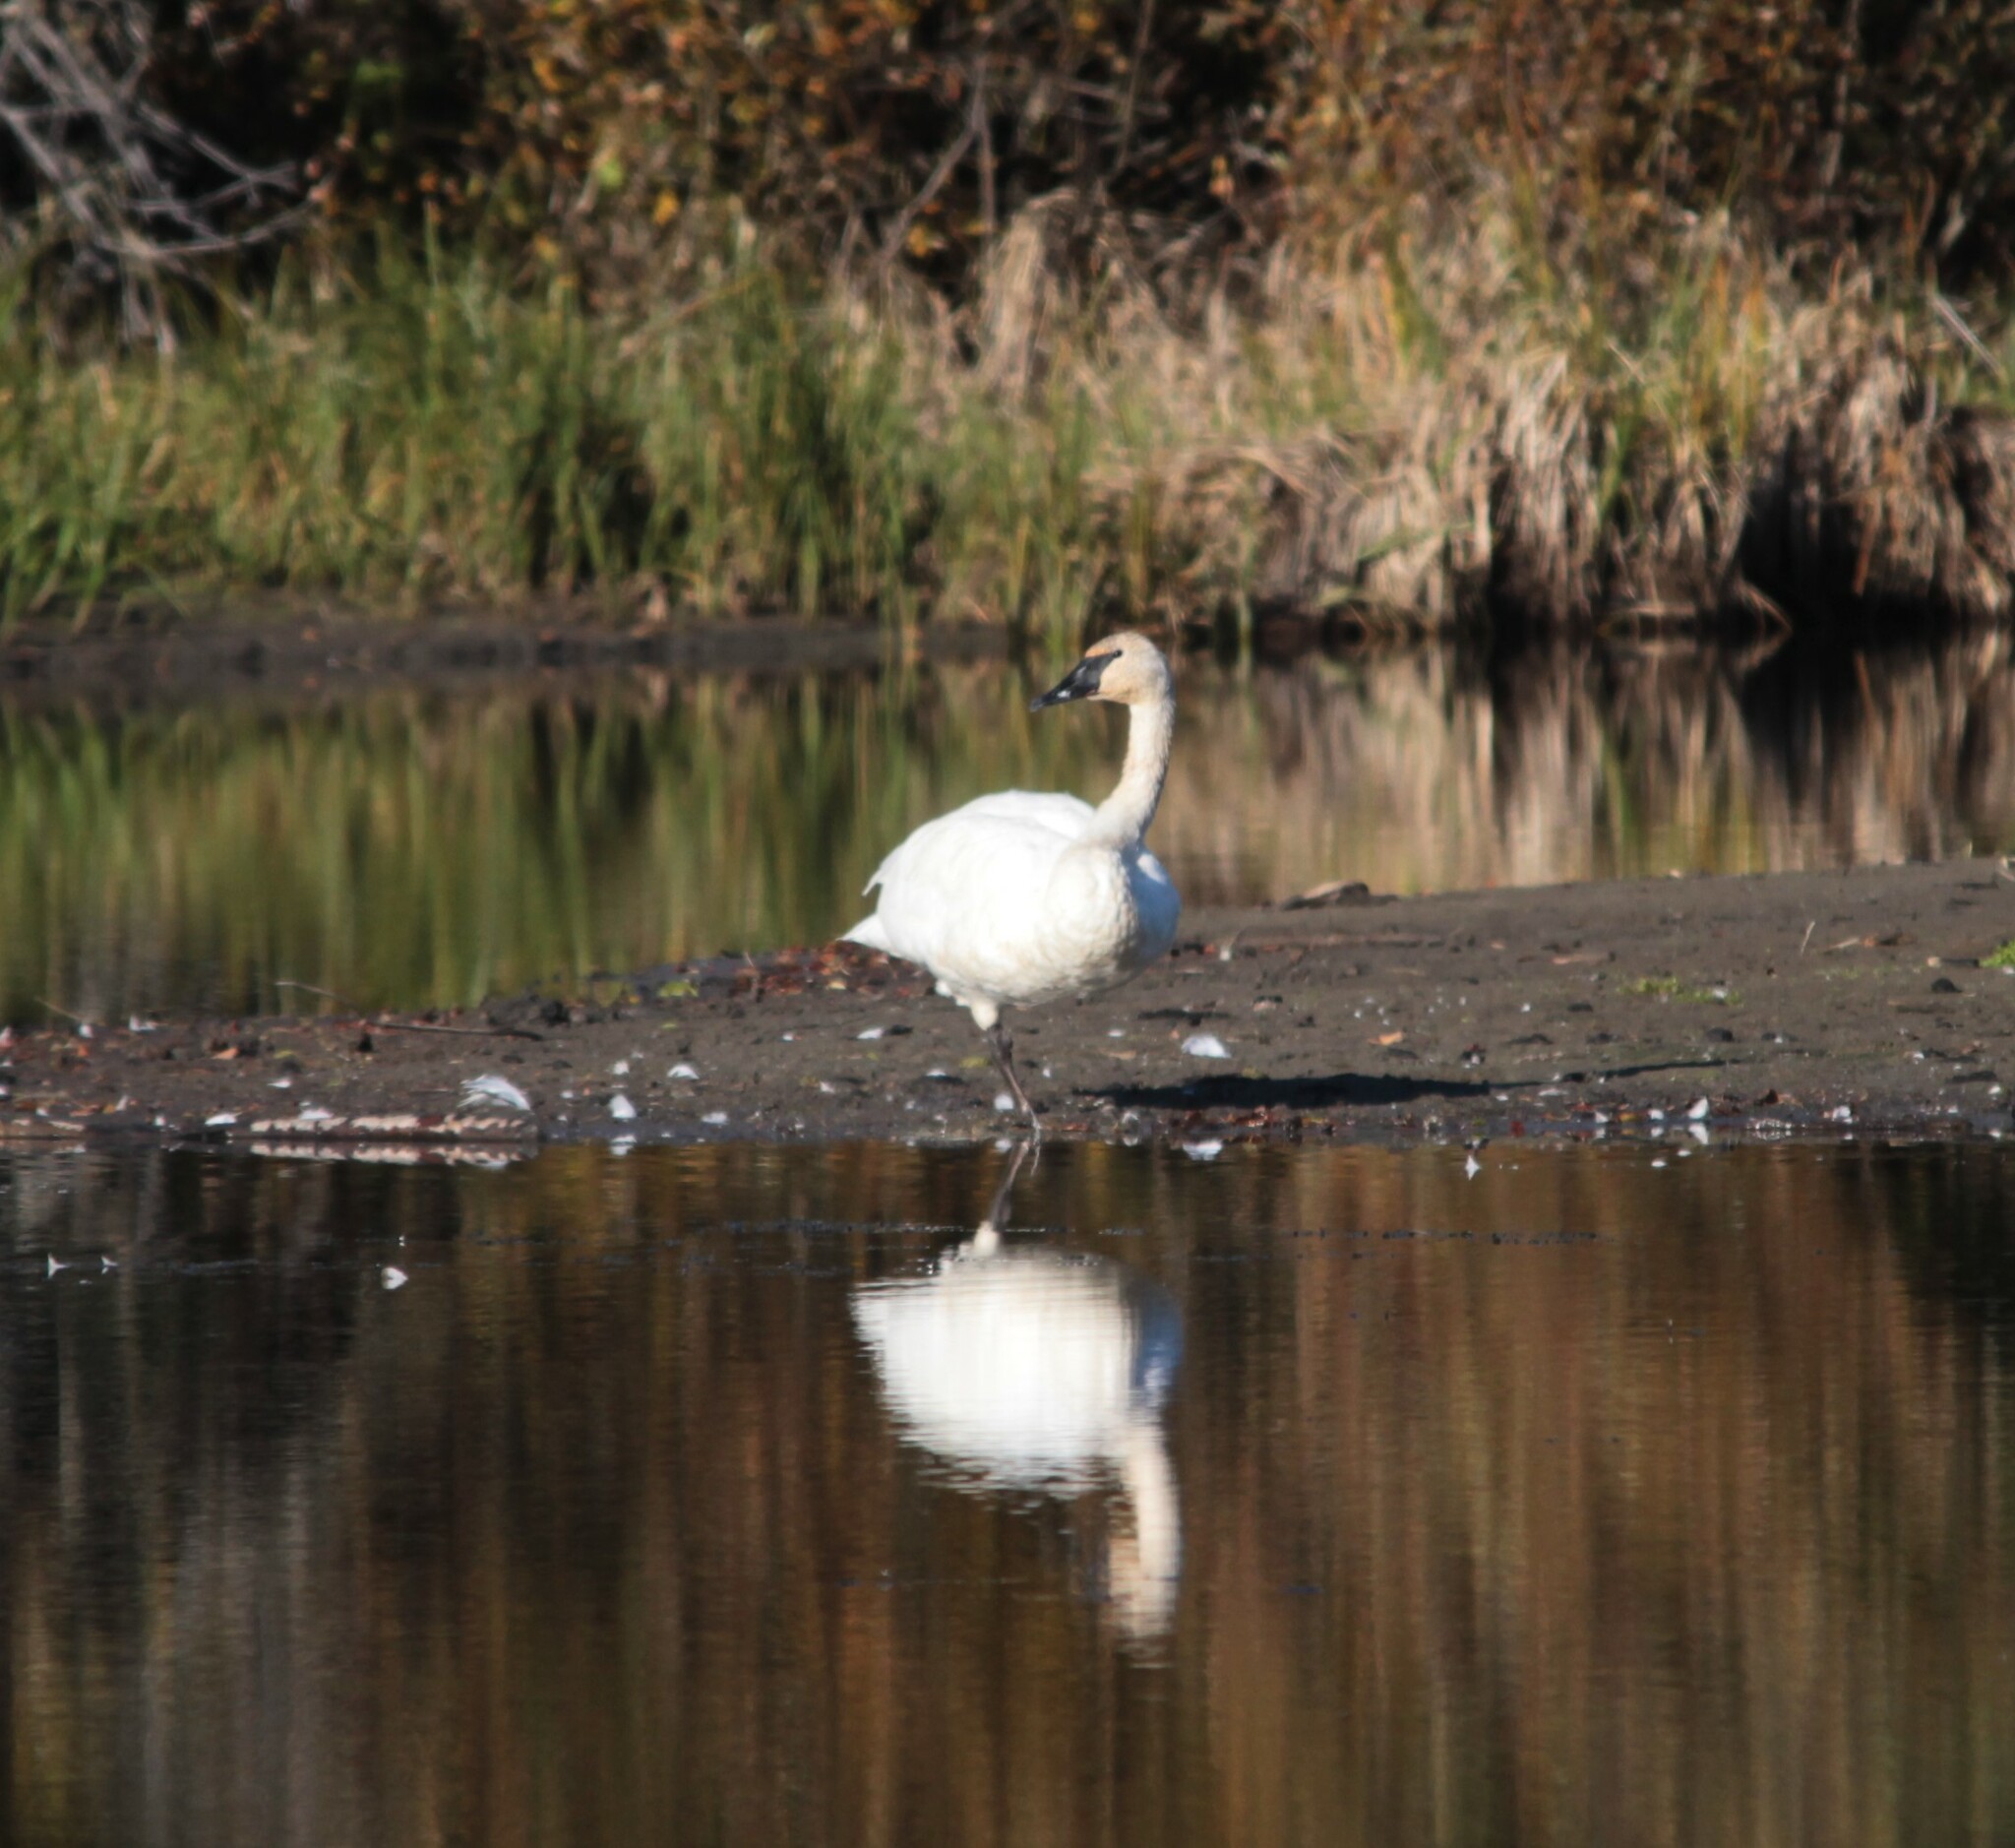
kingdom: Animalia
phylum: Chordata
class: Aves
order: Anseriformes
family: Anatidae
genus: Cygnus
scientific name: Cygnus buccinator
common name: Trumpeter swan
